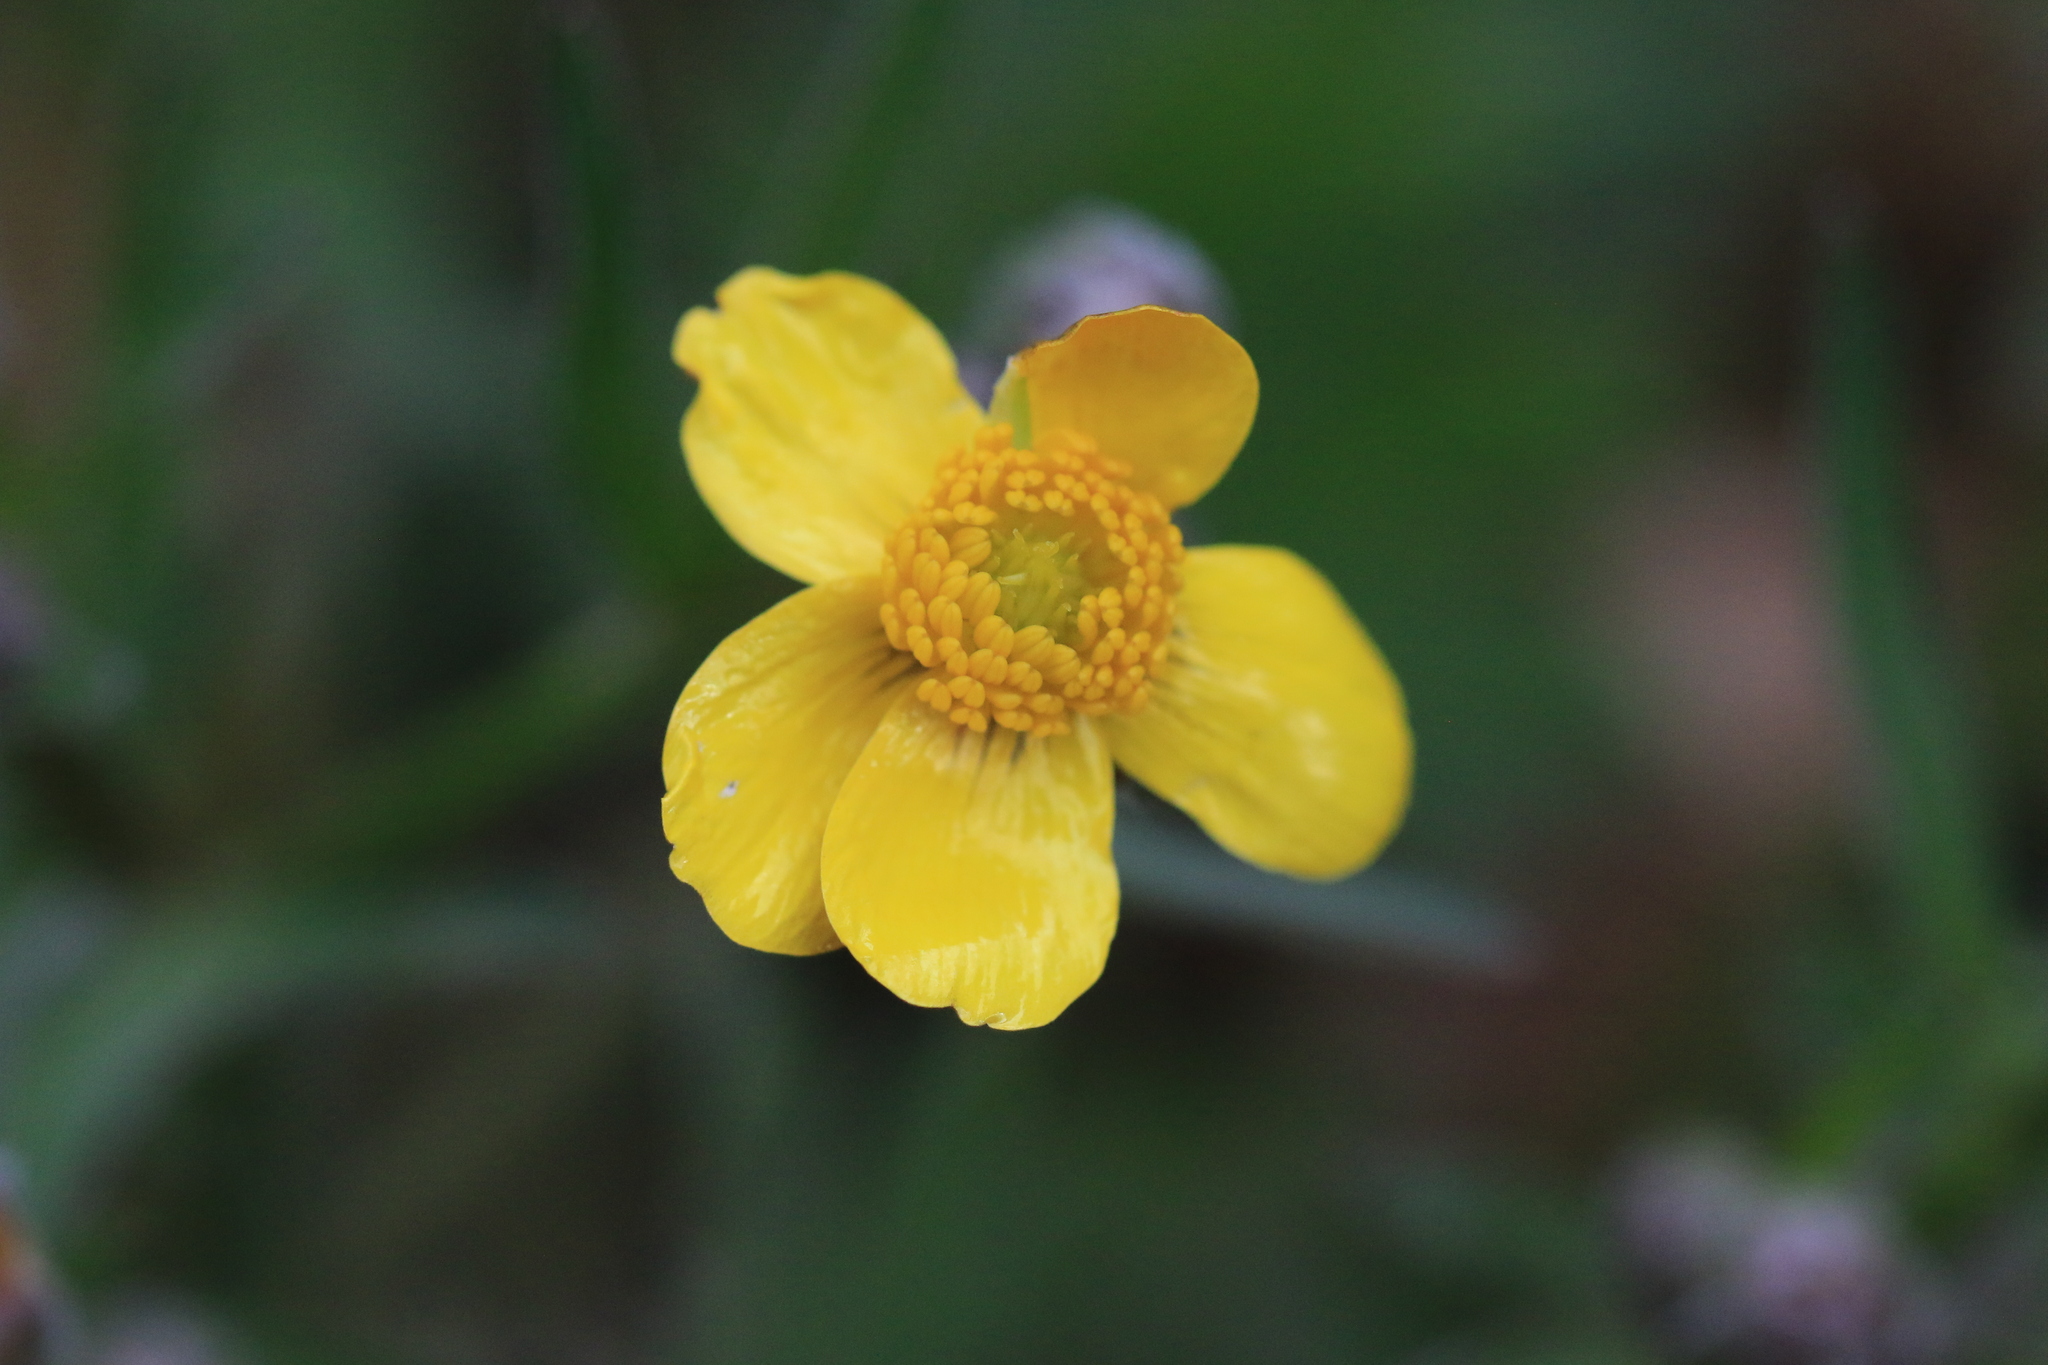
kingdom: Plantae
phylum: Tracheophyta
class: Magnoliopsida
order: Ranunculales
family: Ranunculaceae
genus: Ranunculus
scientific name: Ranunculus austrooreganus
